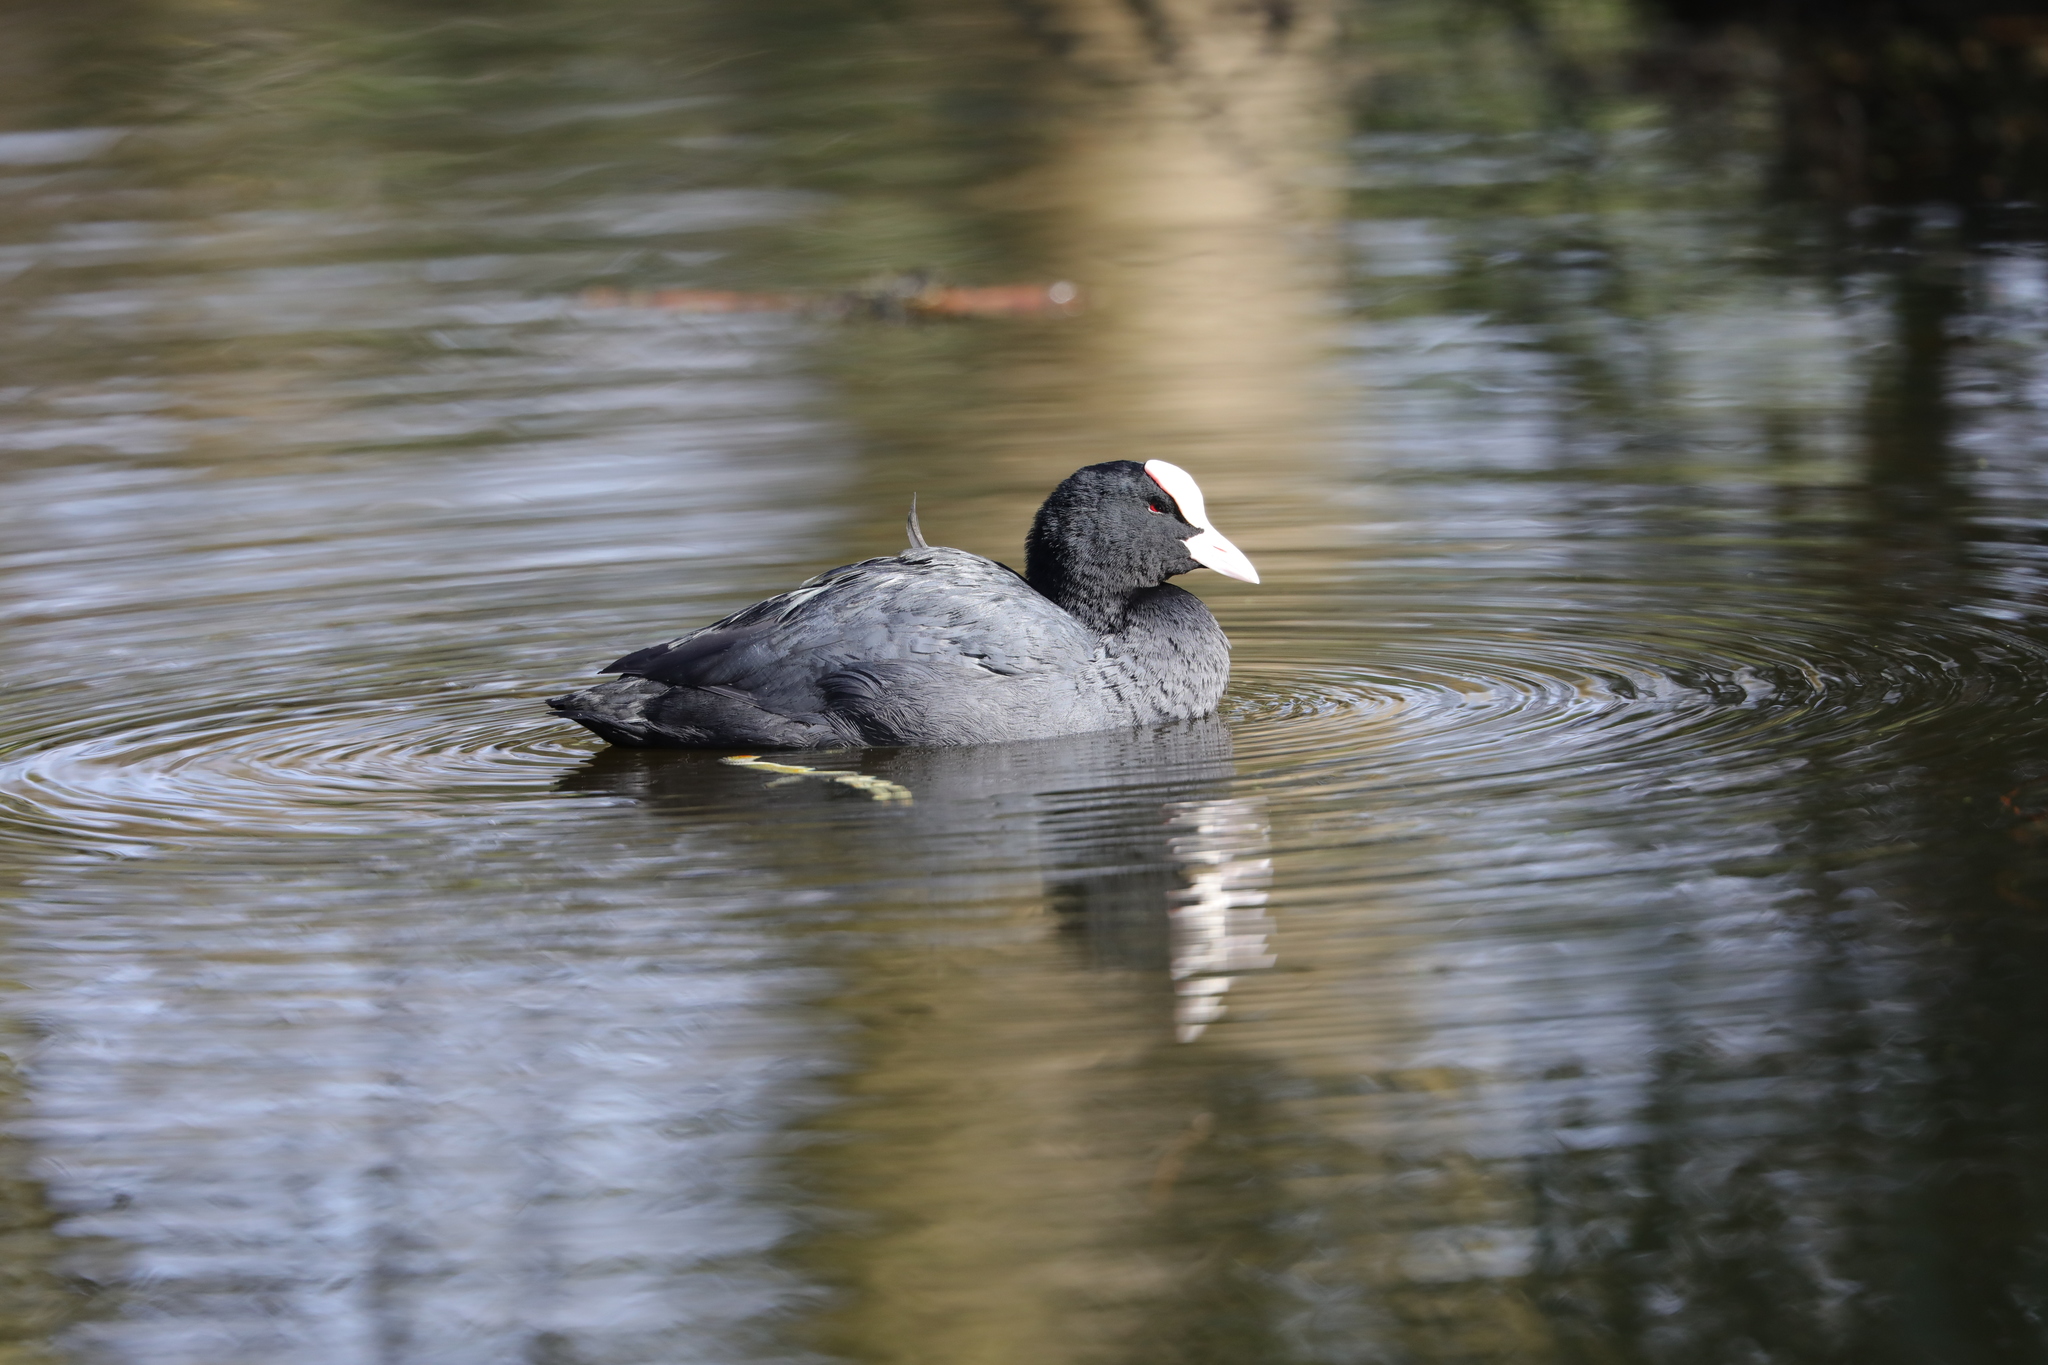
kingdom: Animalia
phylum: Chordata
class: Aves
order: Gruiformes
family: Rallidae
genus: Fulica
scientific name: Fulica atra
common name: Eurasian coot
